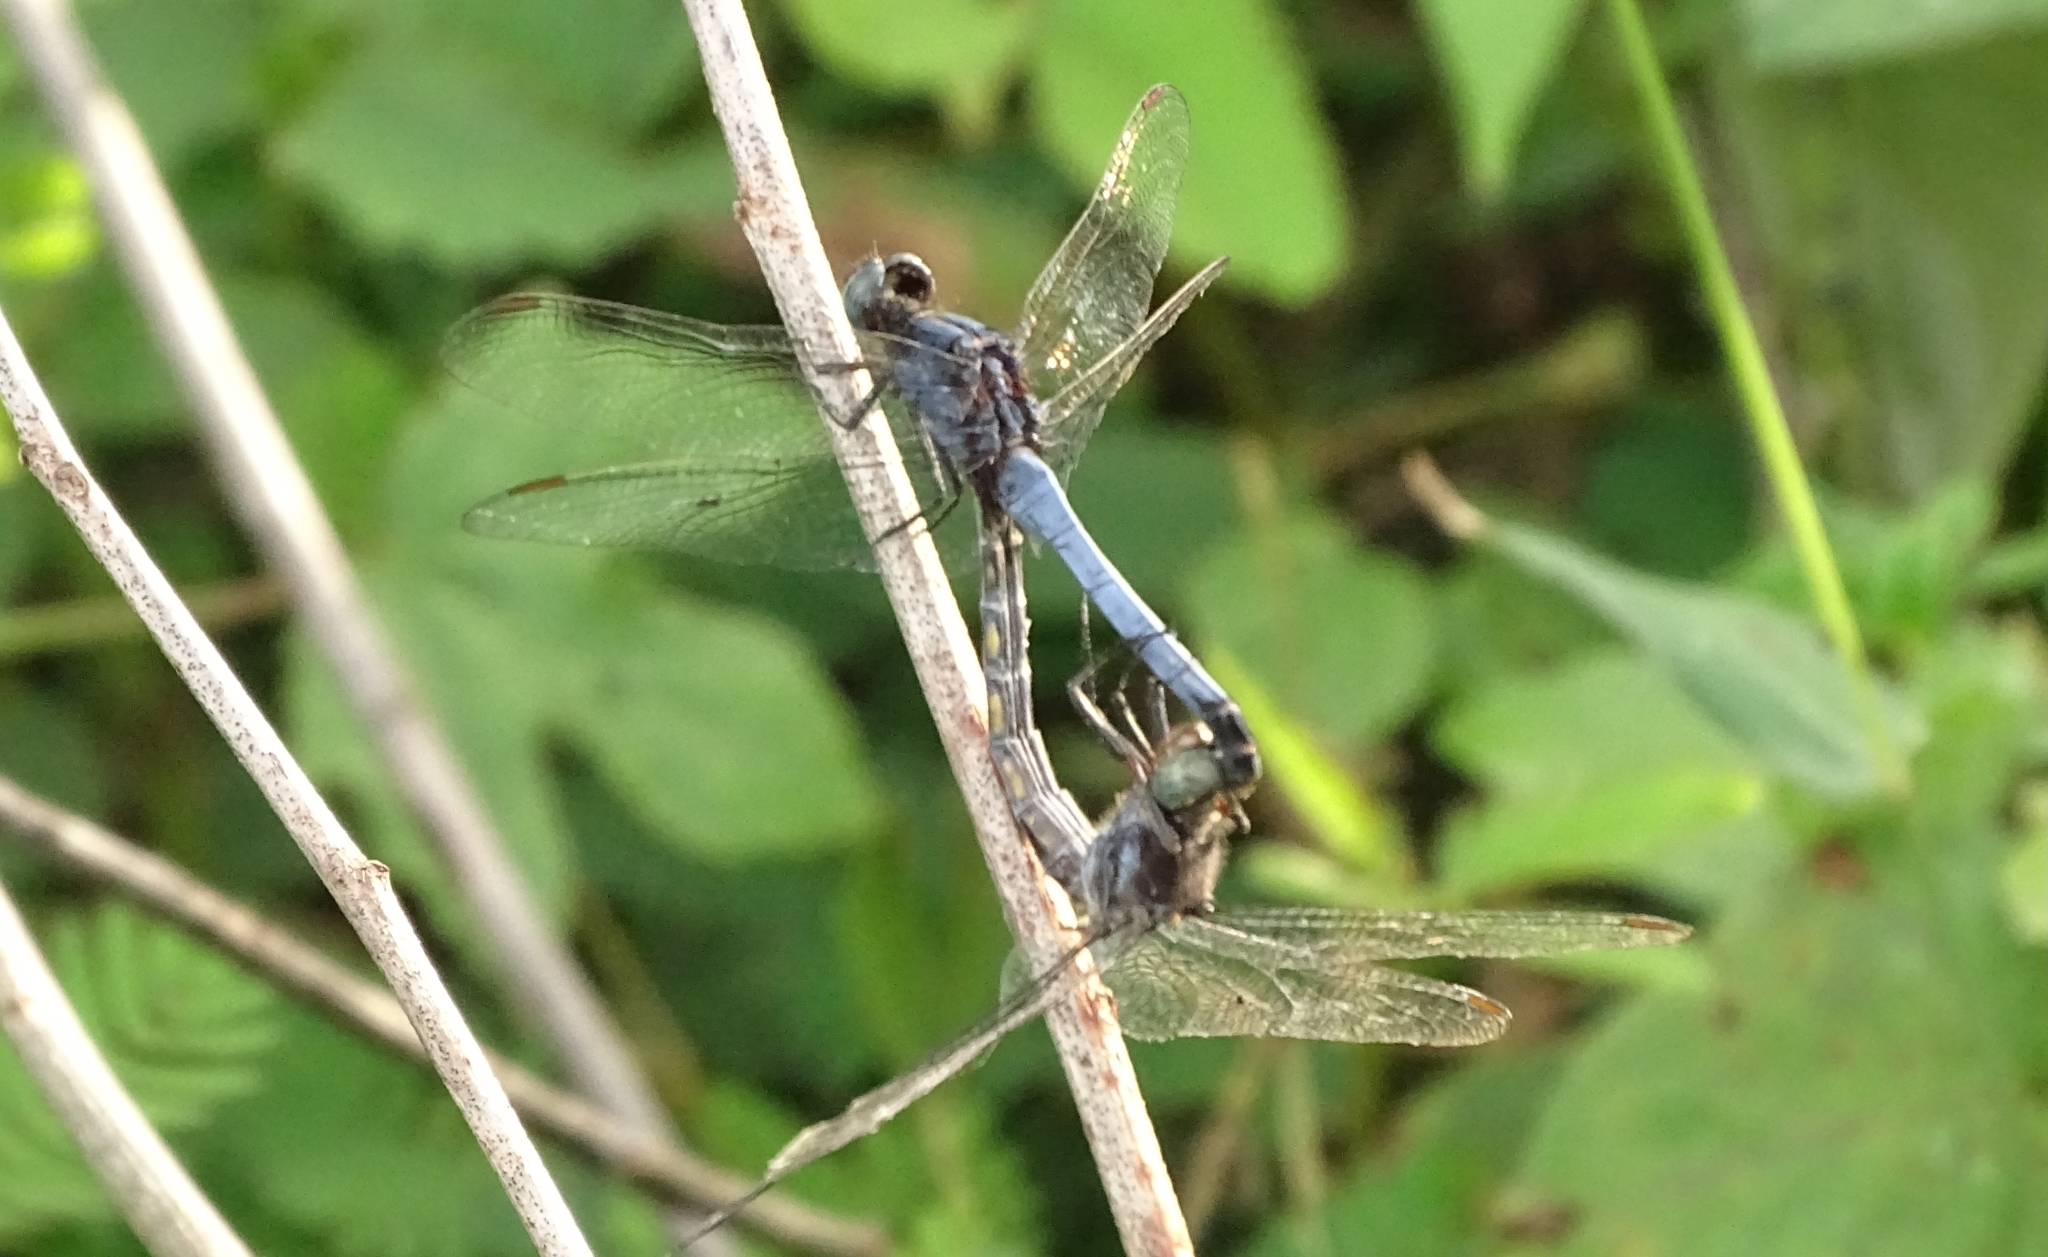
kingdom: Animalia
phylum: Arthropoda
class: Insecta
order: Odonata
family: Libellulidae
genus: Orthetrum
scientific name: Orthetrum glaucum
